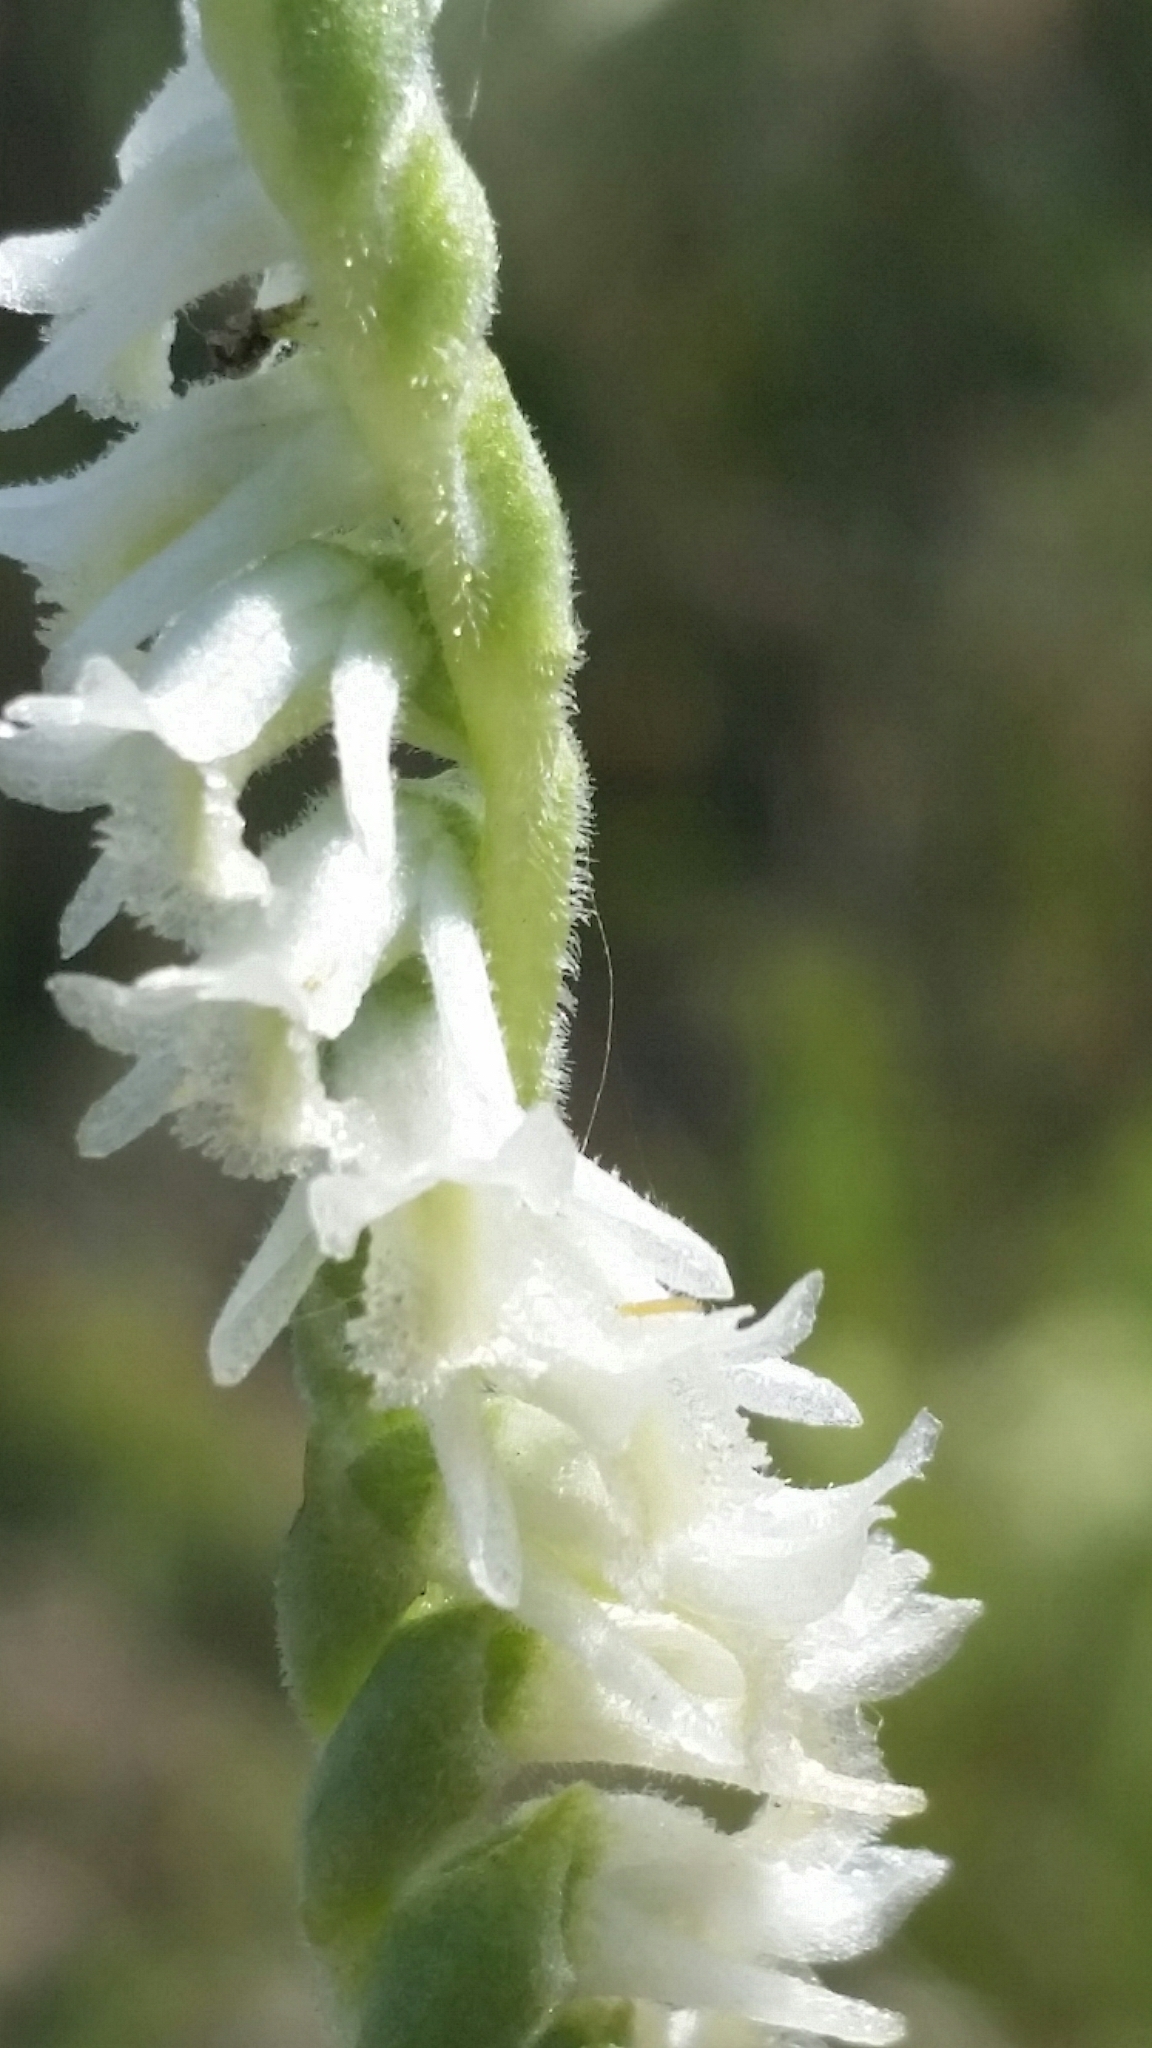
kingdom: Plantae
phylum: Tracheophyta
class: Liliopsida
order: Asparagales
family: Orchidaceae
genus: Spiranthes
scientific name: Spiranthes vernalis
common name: Spring ladies'-tresses
